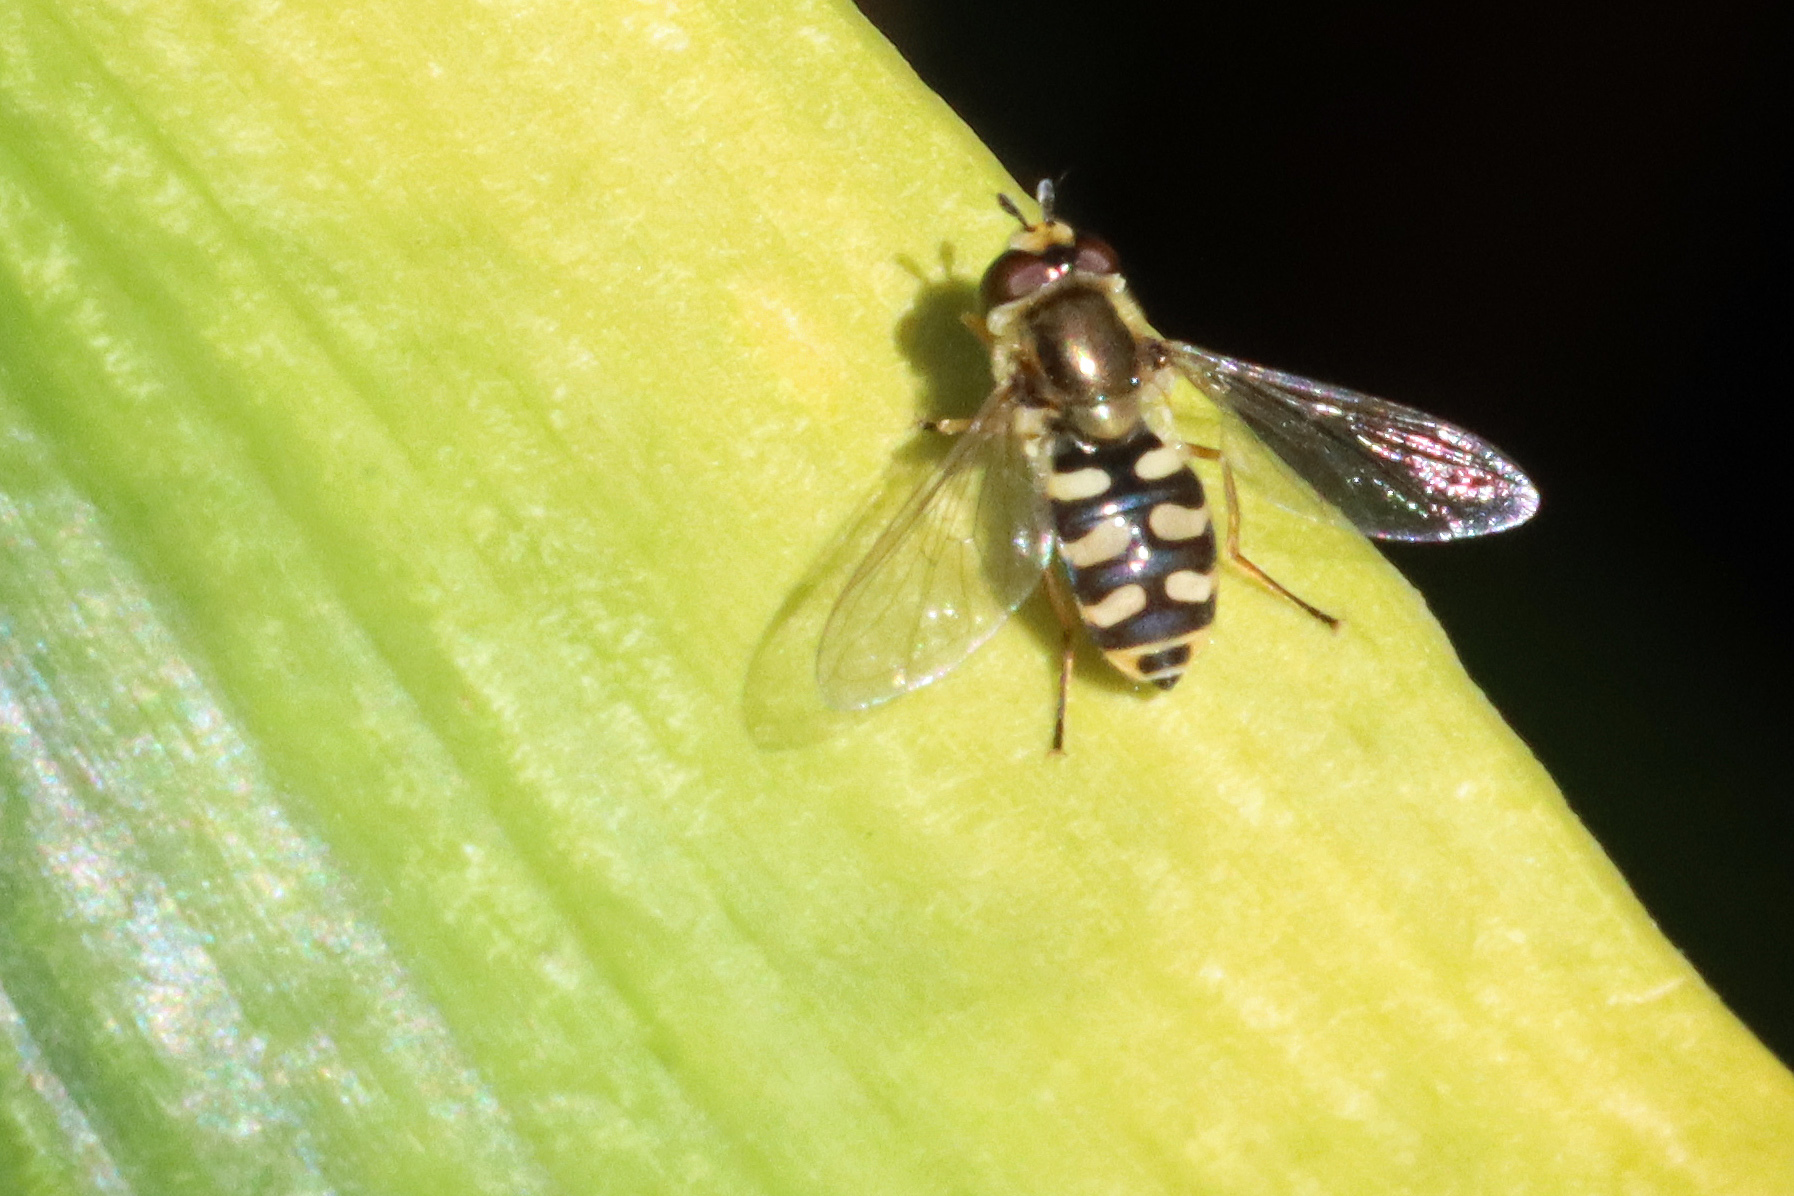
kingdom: Animalia
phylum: Arthropoda
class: Insecta
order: Diptera
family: Syrphidae
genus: Eupeodes
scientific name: Eupeodes corollae
